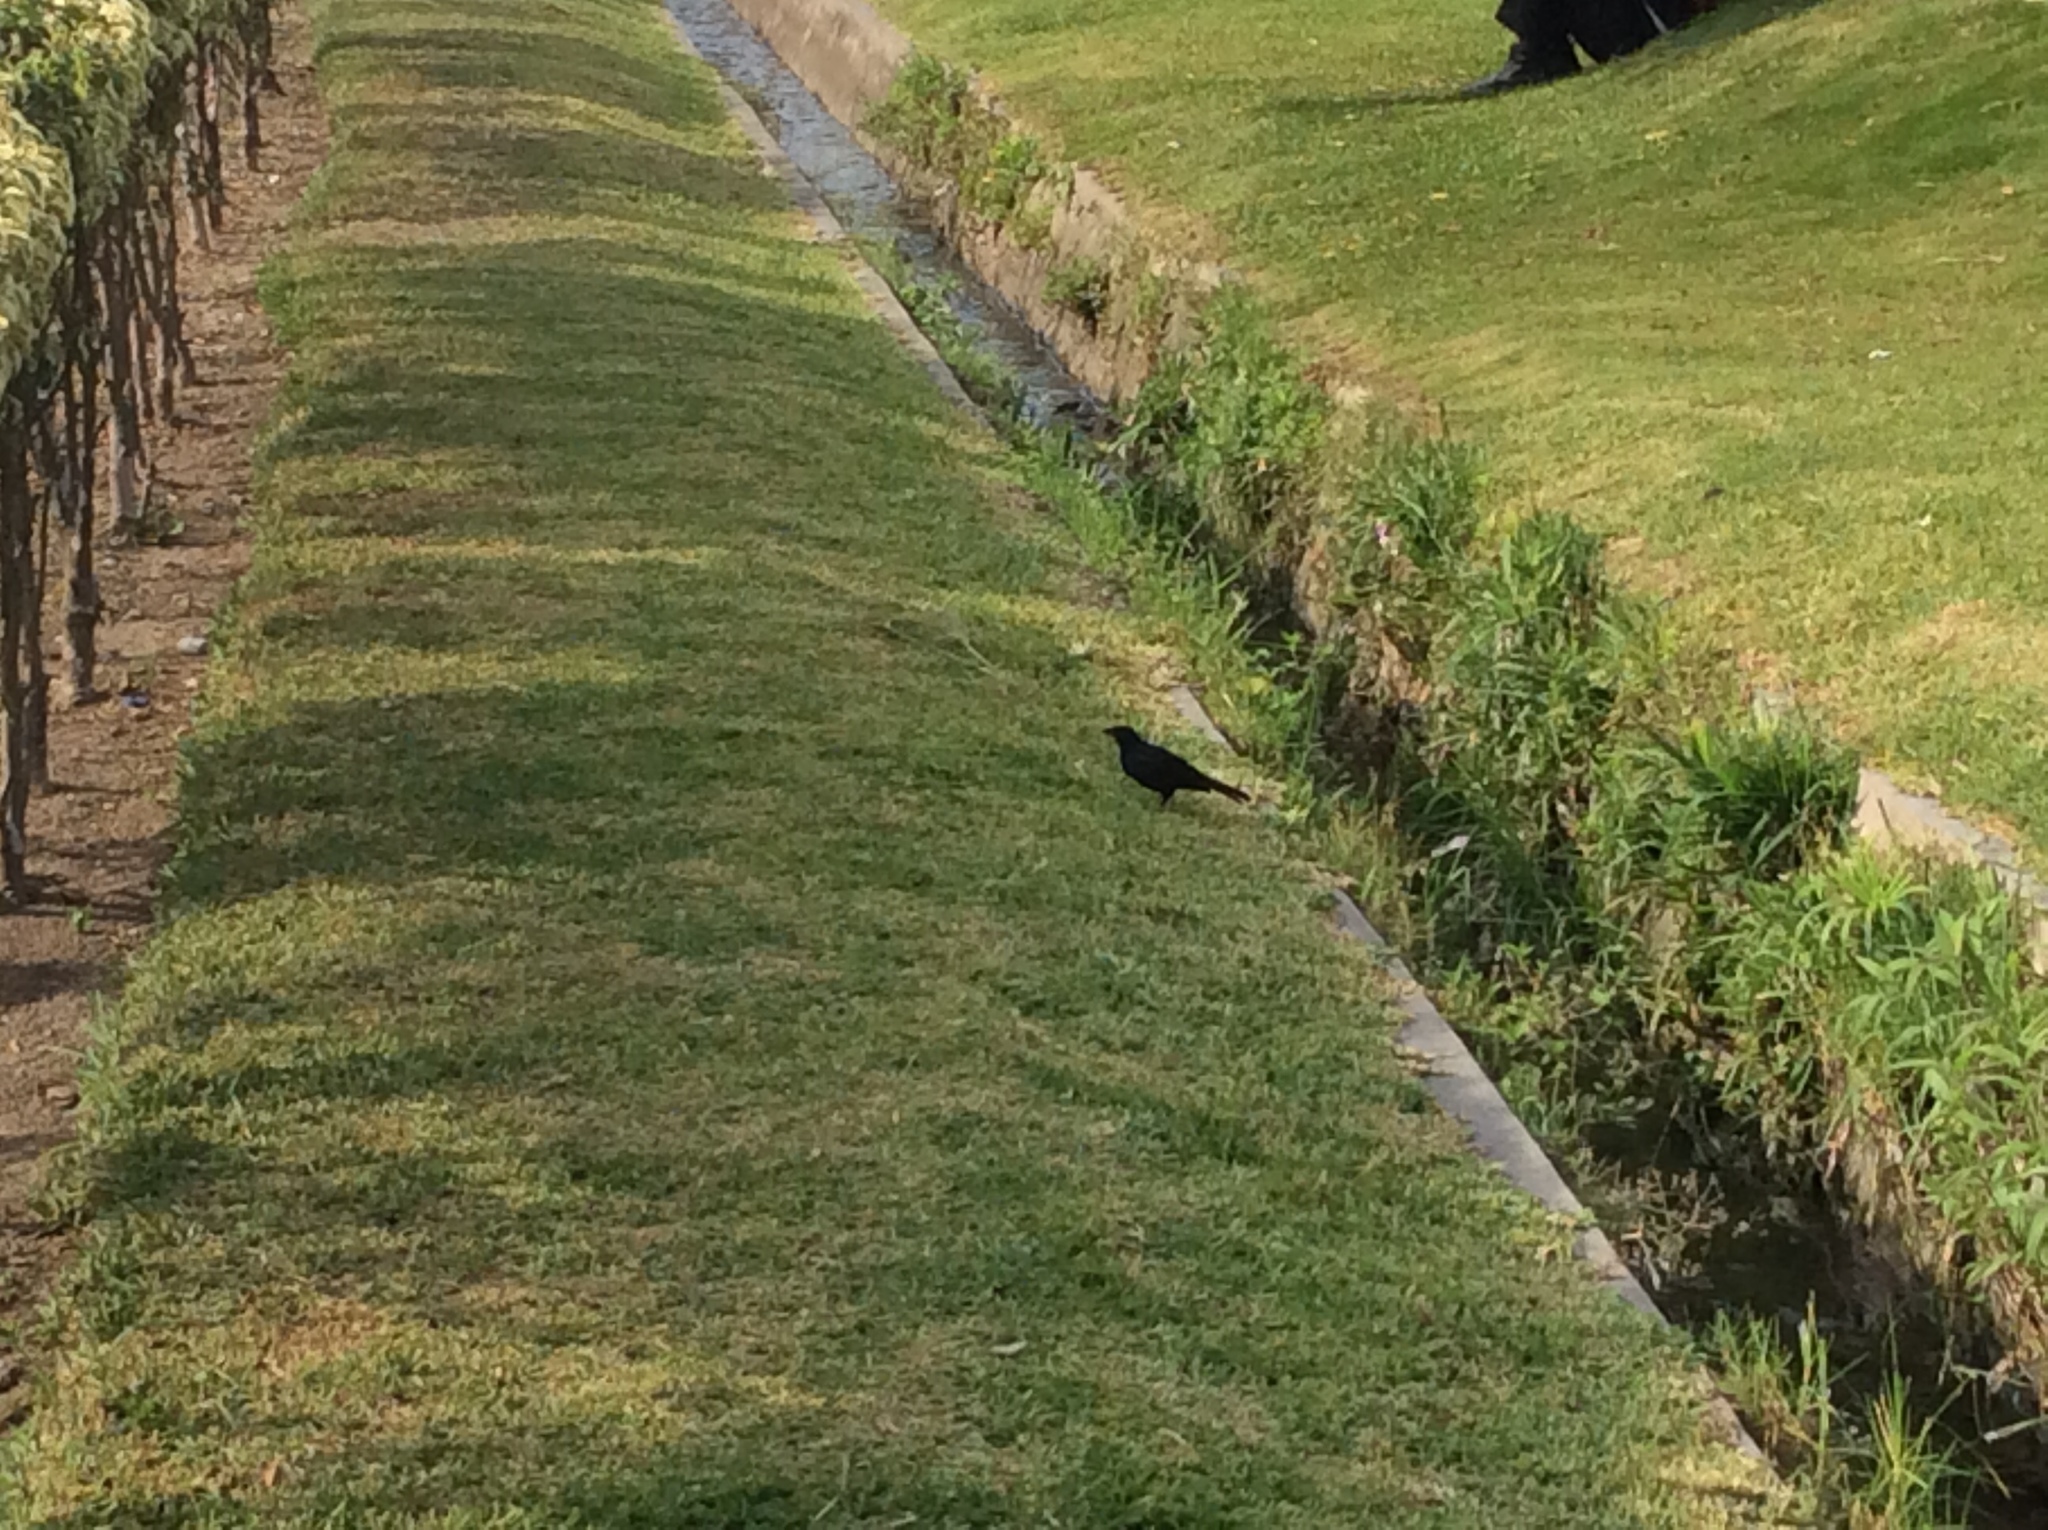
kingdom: Animalia
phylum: Chordata
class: Aves
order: Passeriformes
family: Icteridae
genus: Dives
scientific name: Dives warczewiczi
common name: Scrub blackbird
